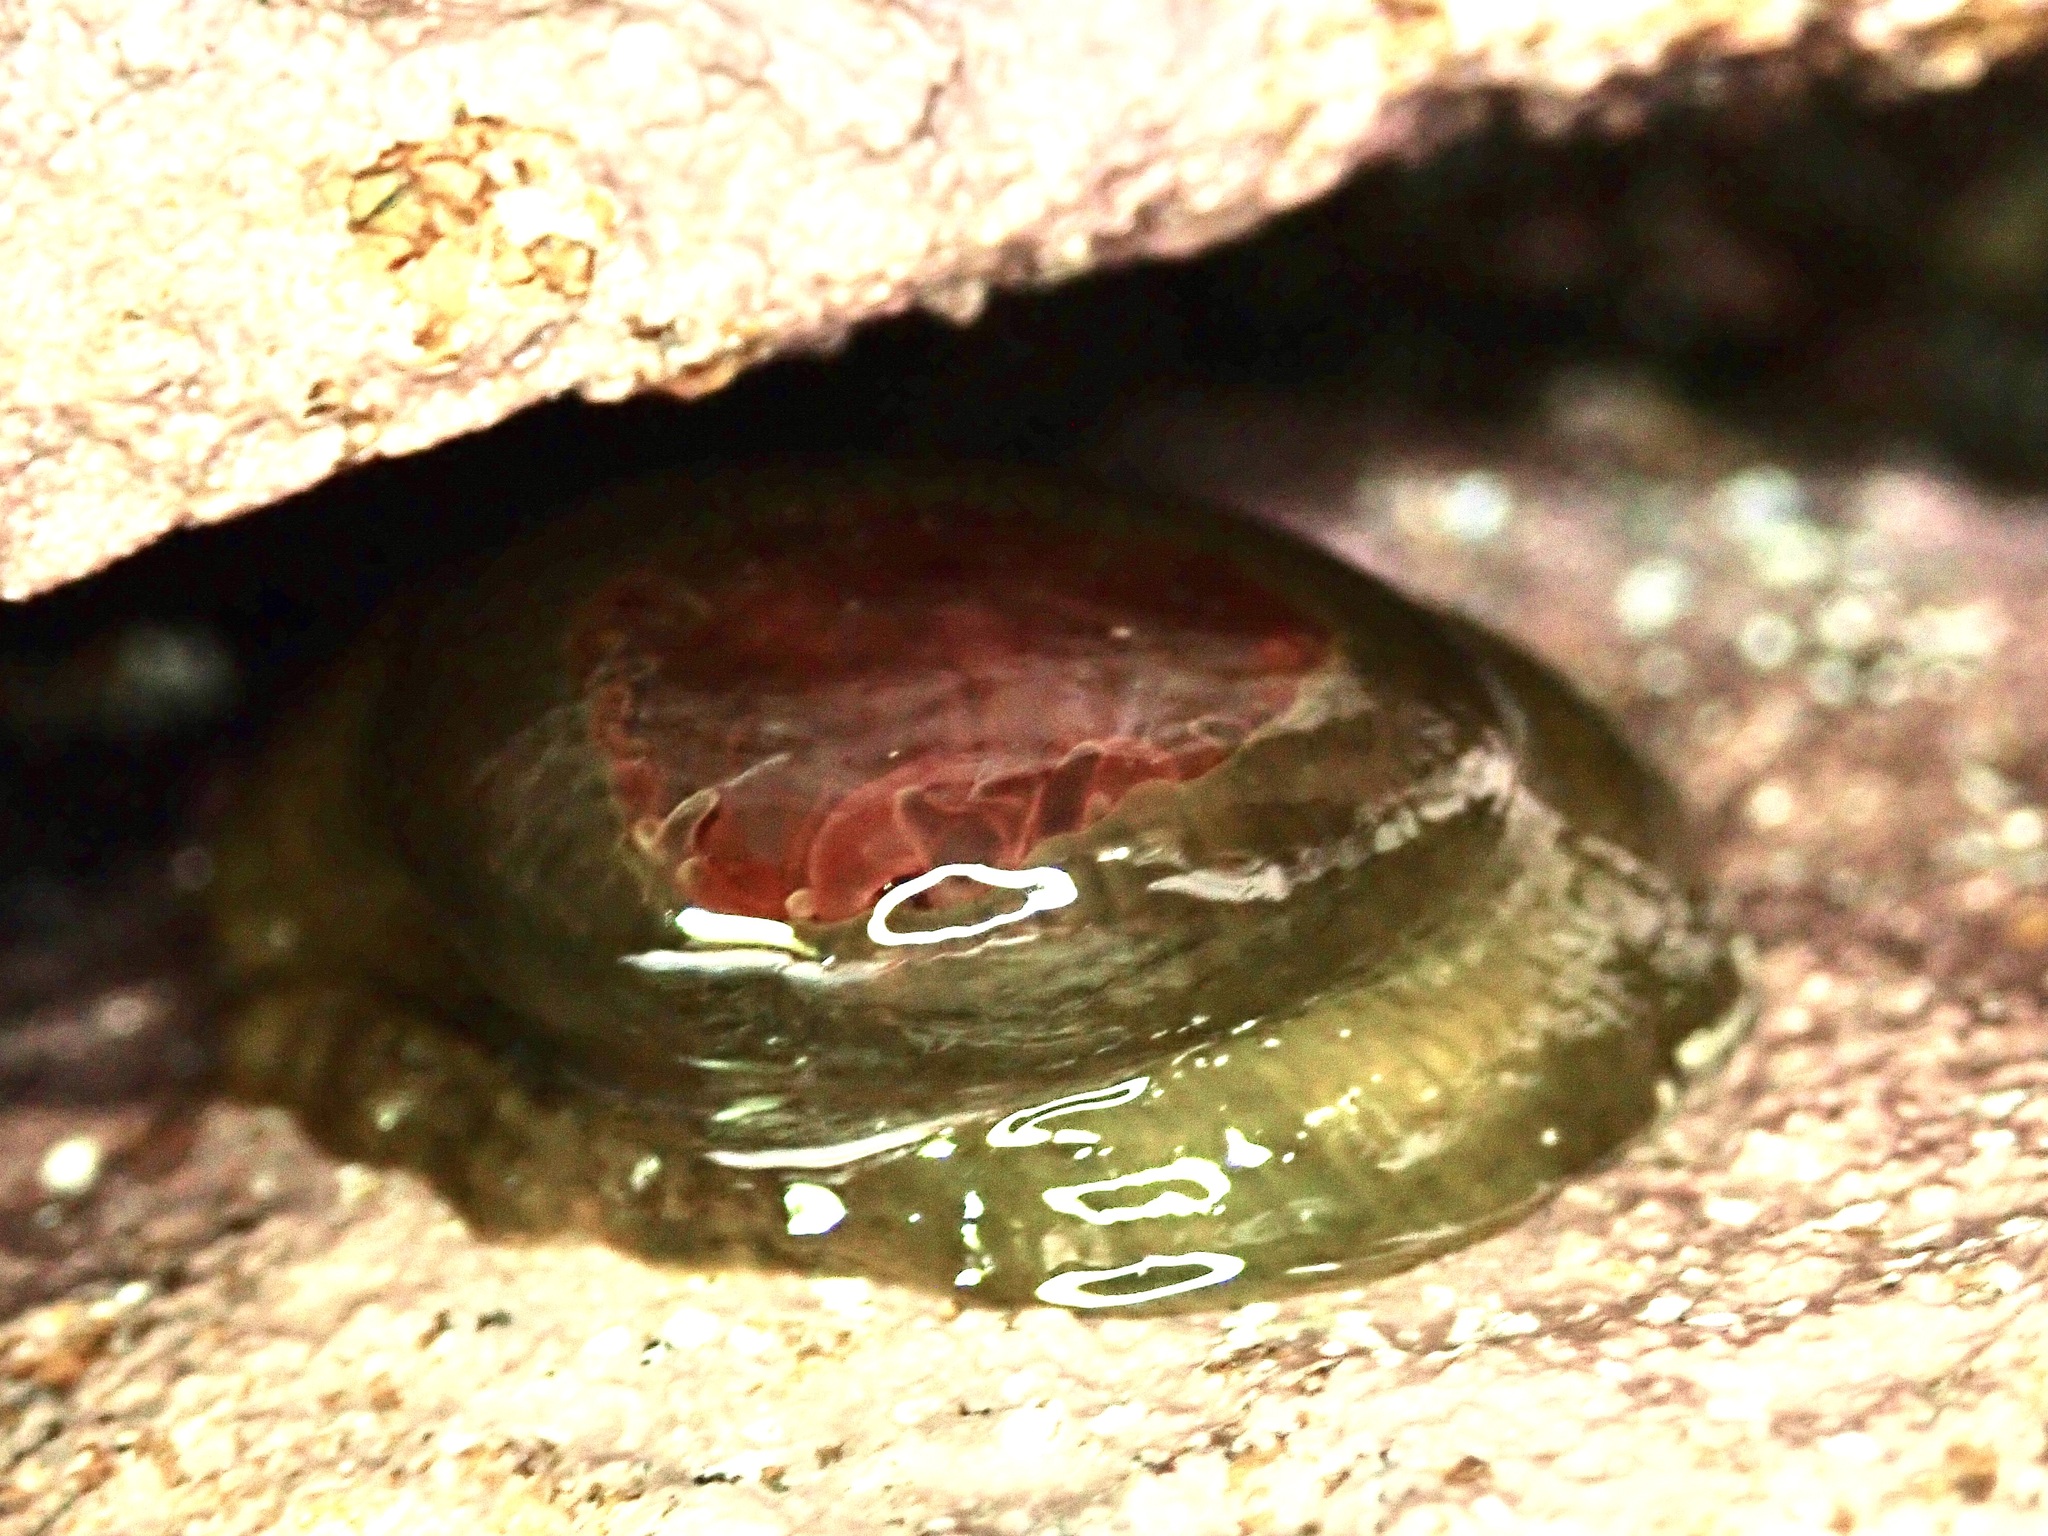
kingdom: Animalia
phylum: Cnidaria
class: Anthozoa
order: Actiniaria
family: Actiniidae
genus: Isactinia
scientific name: Isactinia olivacea
